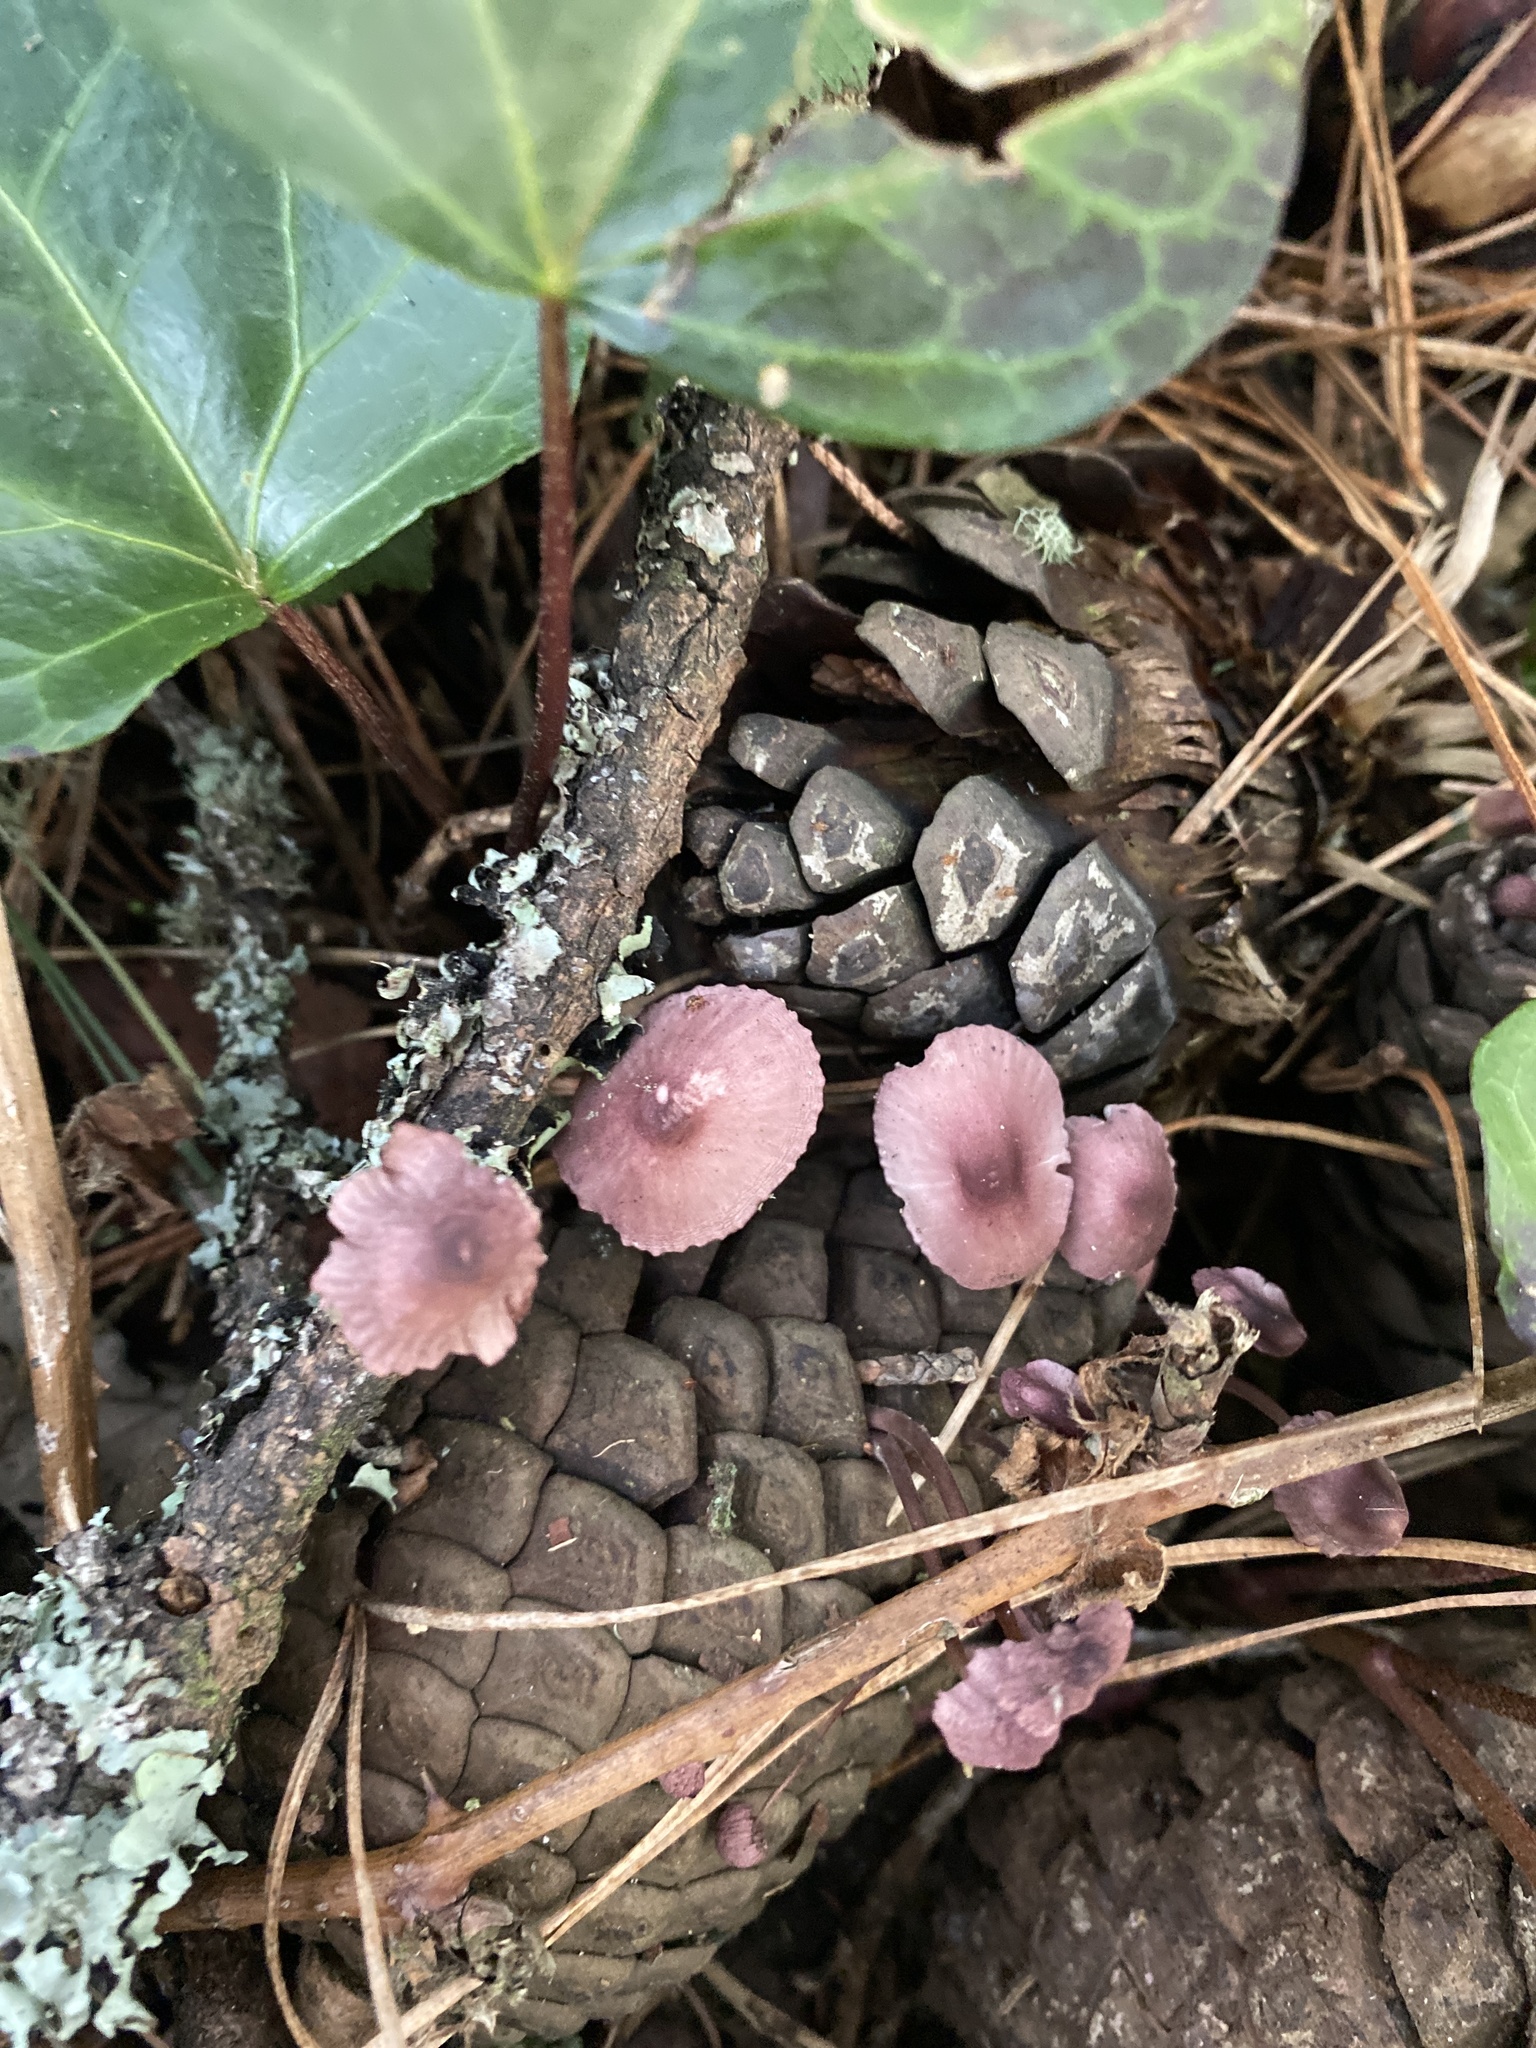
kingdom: Fungi
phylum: Basidiomycota
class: Agaricomycetes
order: Agaricales
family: Mycenaceae
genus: Mycena
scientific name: Mycena purpureofusca
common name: Purple edge bonnet
